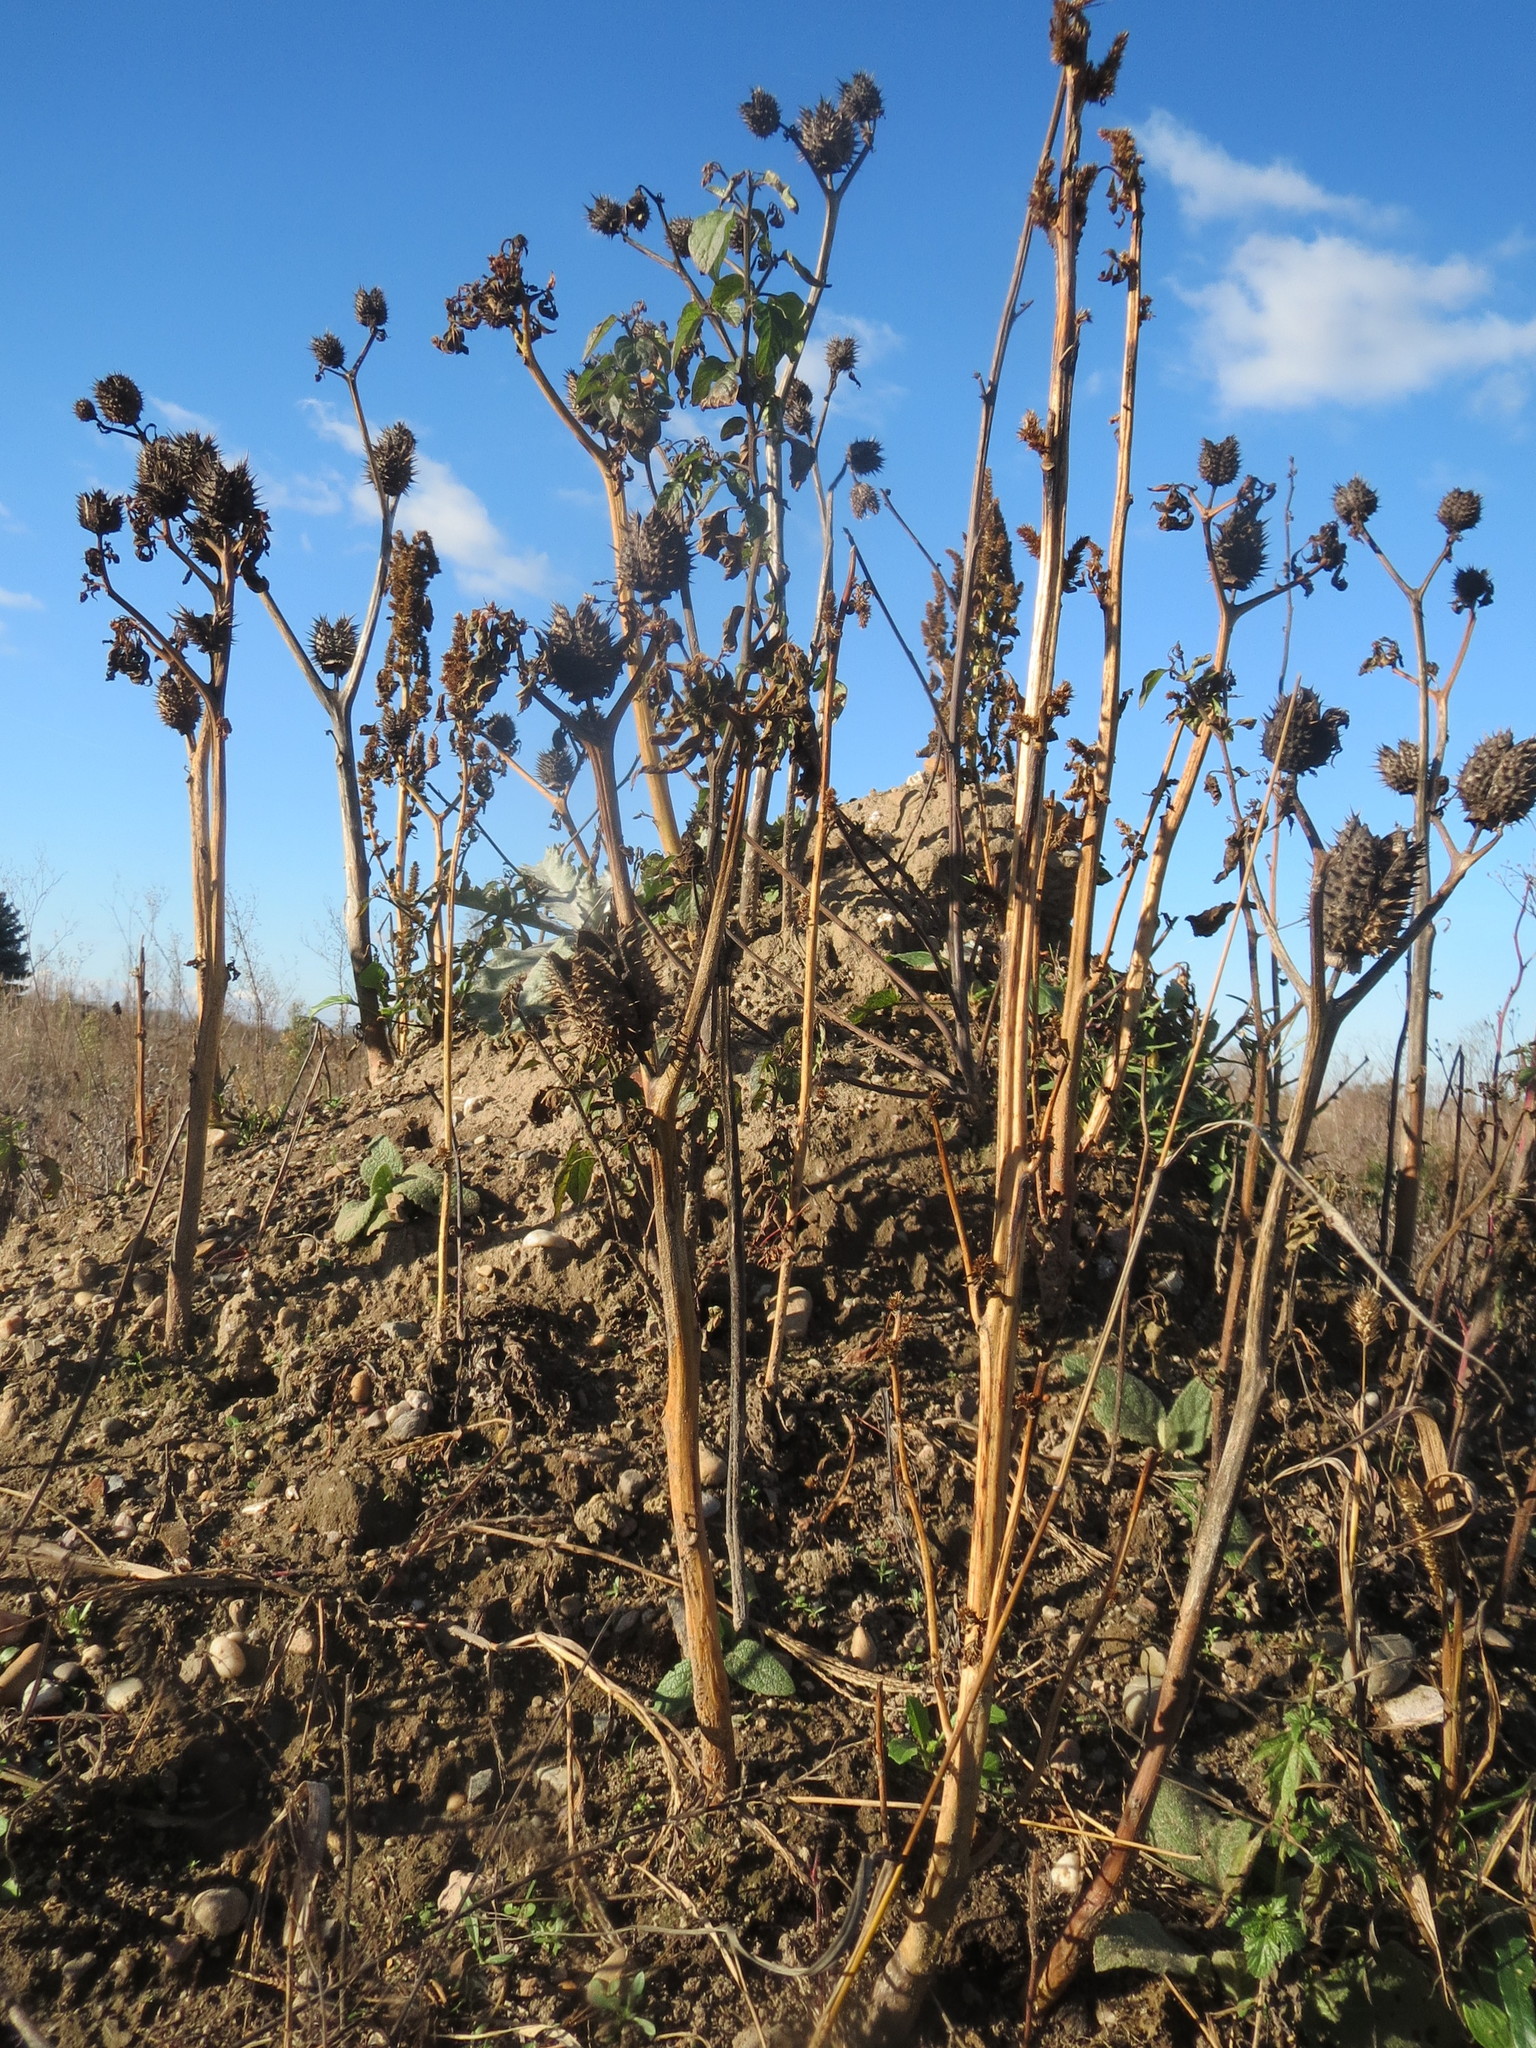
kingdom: Plantae
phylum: Tracheophyta
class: Magnoliopsida
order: Solanales
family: Solanaceae
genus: Datura
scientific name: Datura stramonium
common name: Thorn-apple
